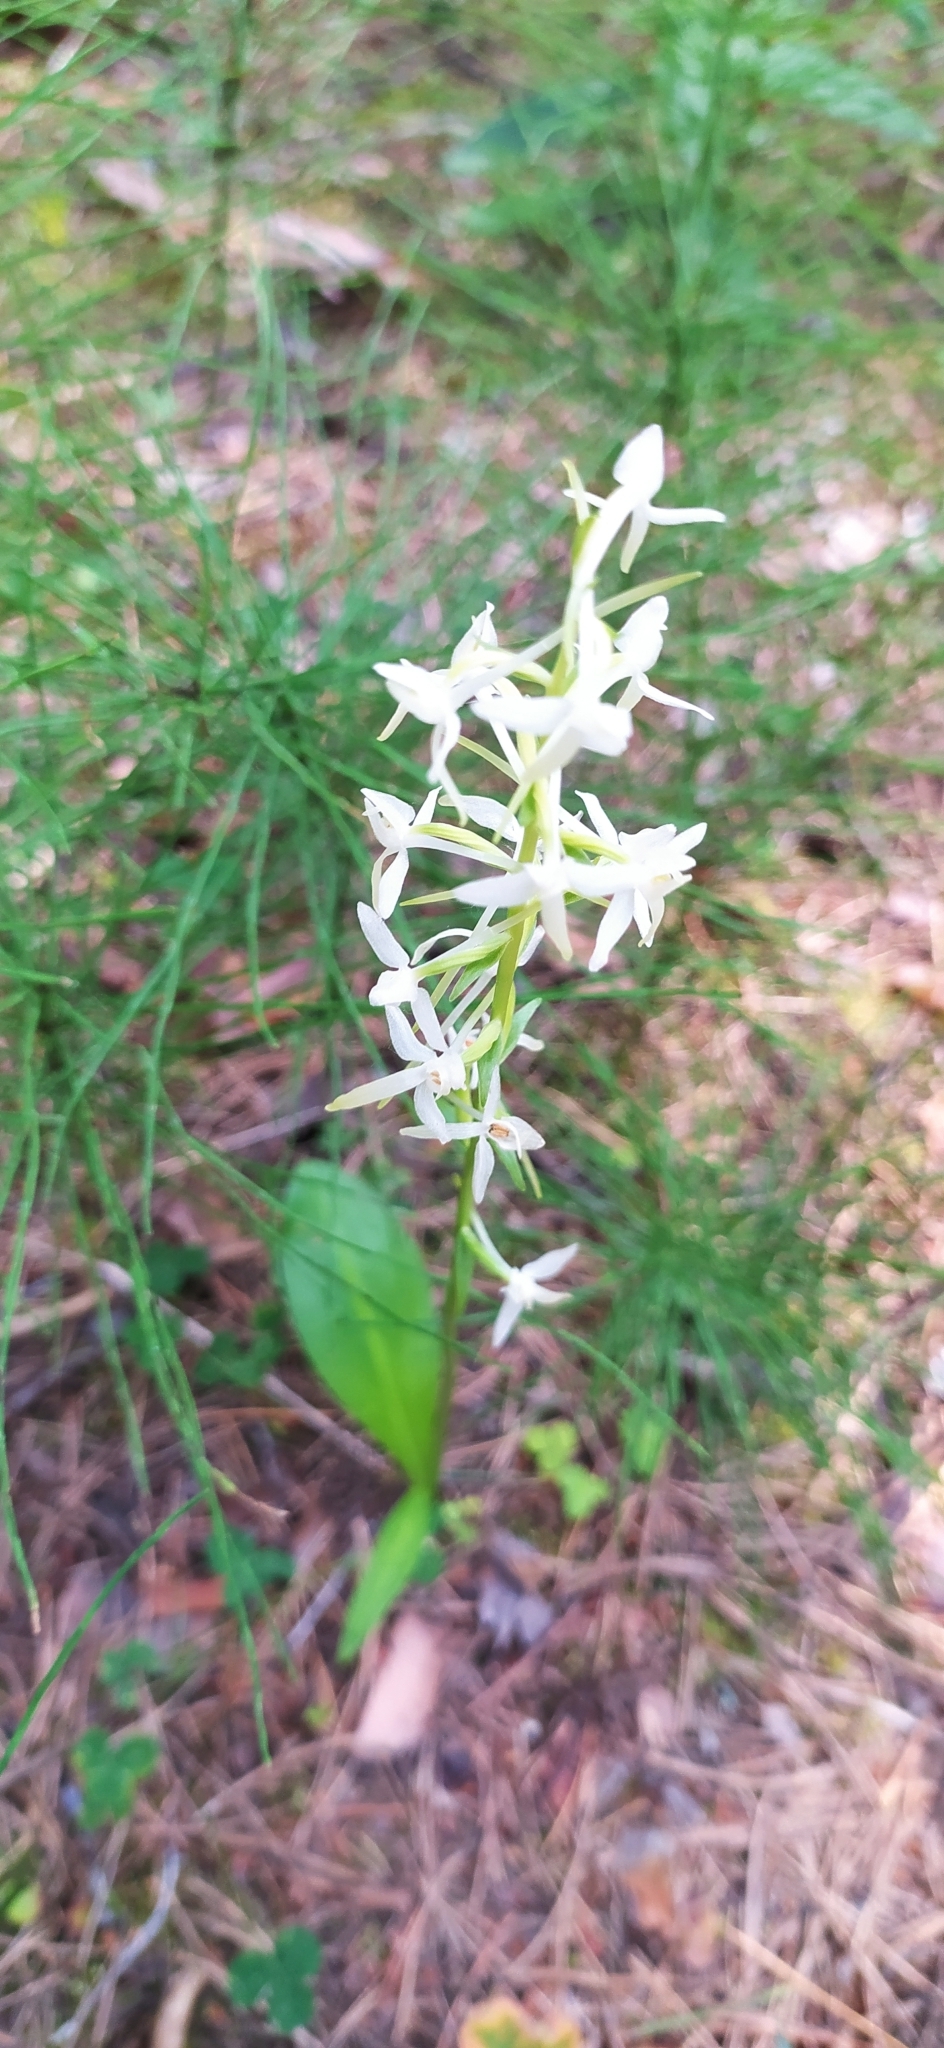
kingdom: Plantae
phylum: Tracheophyta
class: Liliopsida
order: Asparagales
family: Orchidaceae
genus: Platanthera
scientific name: Platanthera bifolia
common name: Lesser butterfly-orchid
